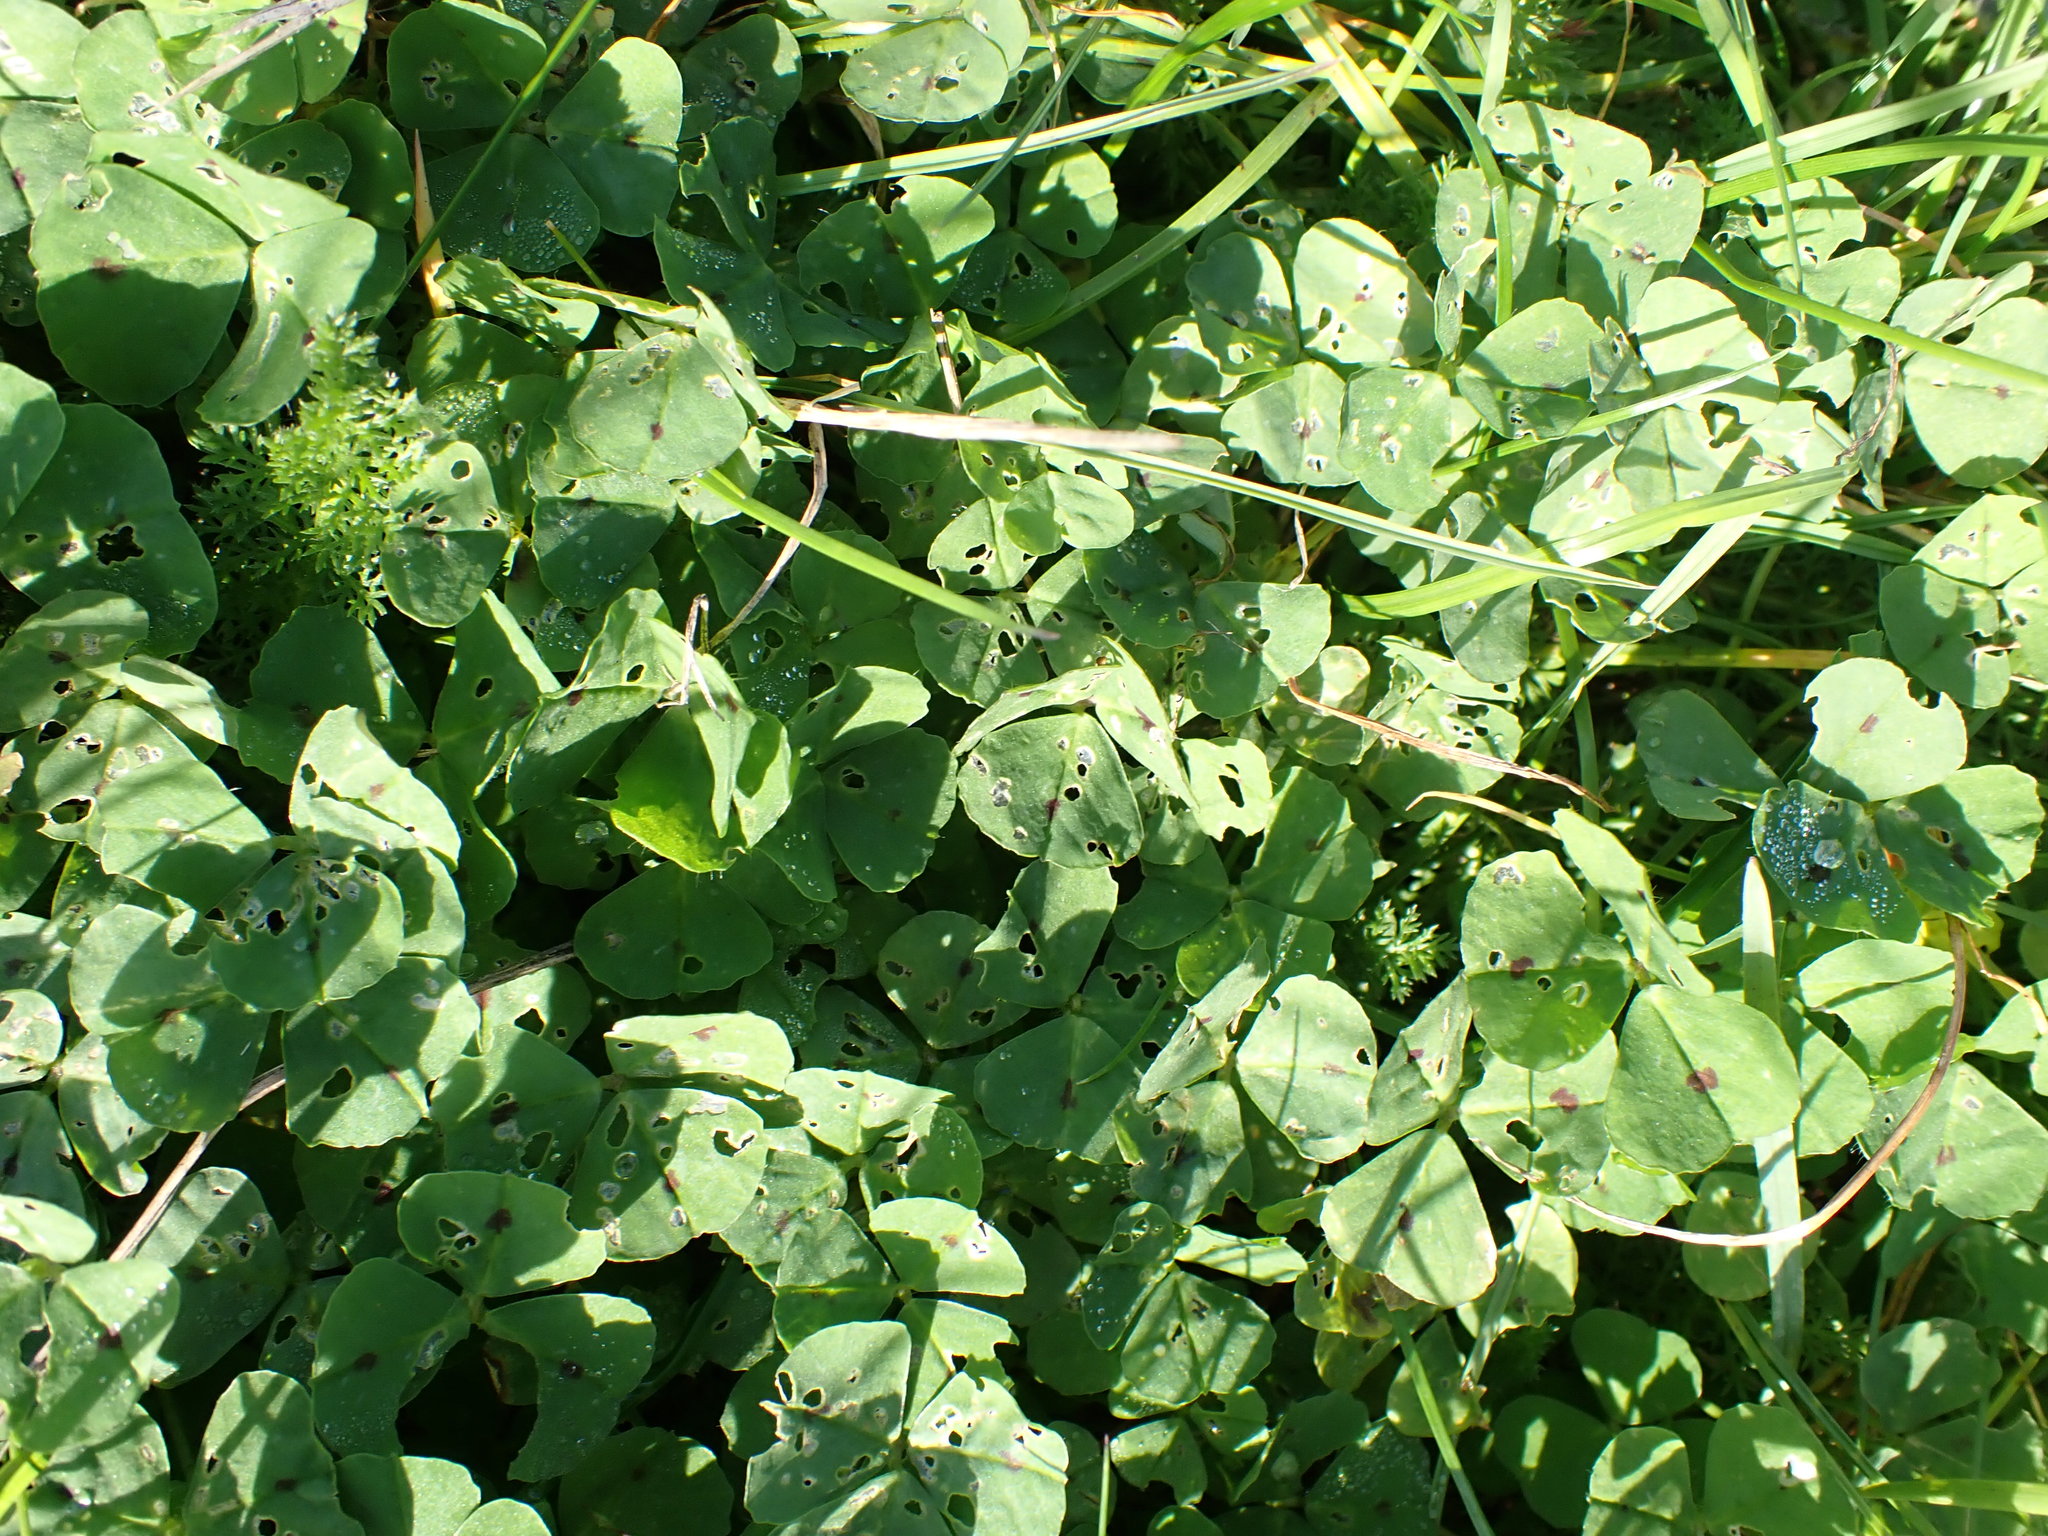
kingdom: Plantae
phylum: Tracheophyta
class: Magnoliopsida
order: Fabales
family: Fabaceae
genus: Medicago
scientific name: Medicago arabica
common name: Spotted medick
